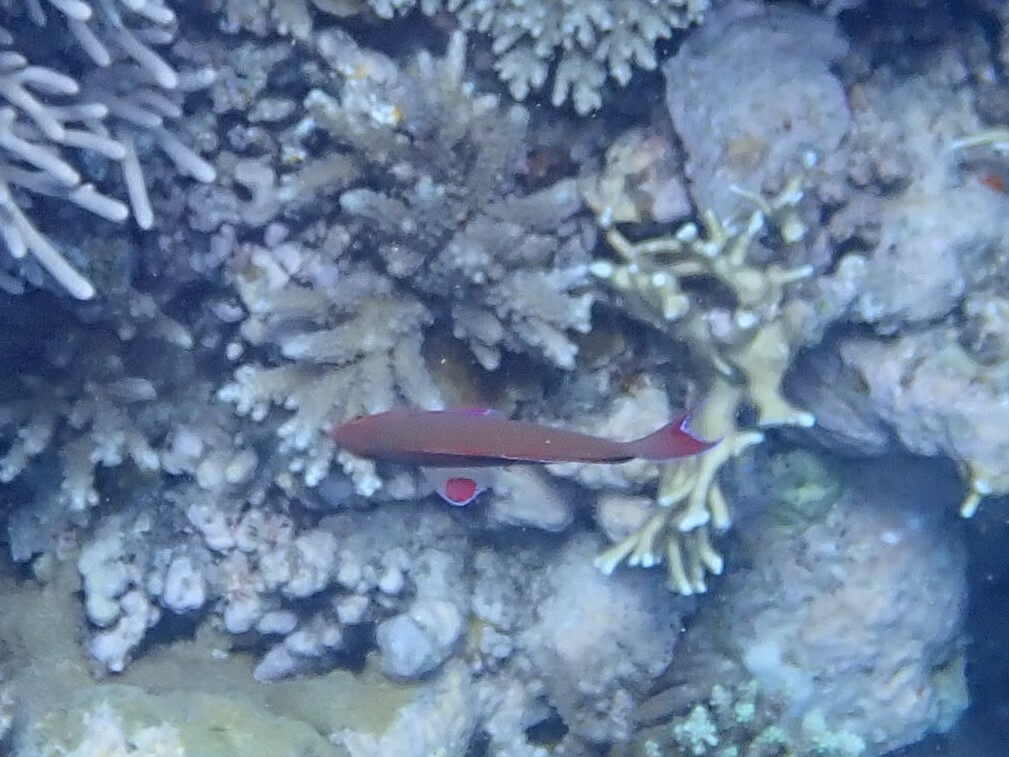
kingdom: Animalia
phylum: Chordata
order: Perciformes
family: Serranidae
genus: Pseudanthias
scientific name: Pseudanthias squamipinnis
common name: Scalefin anthias
